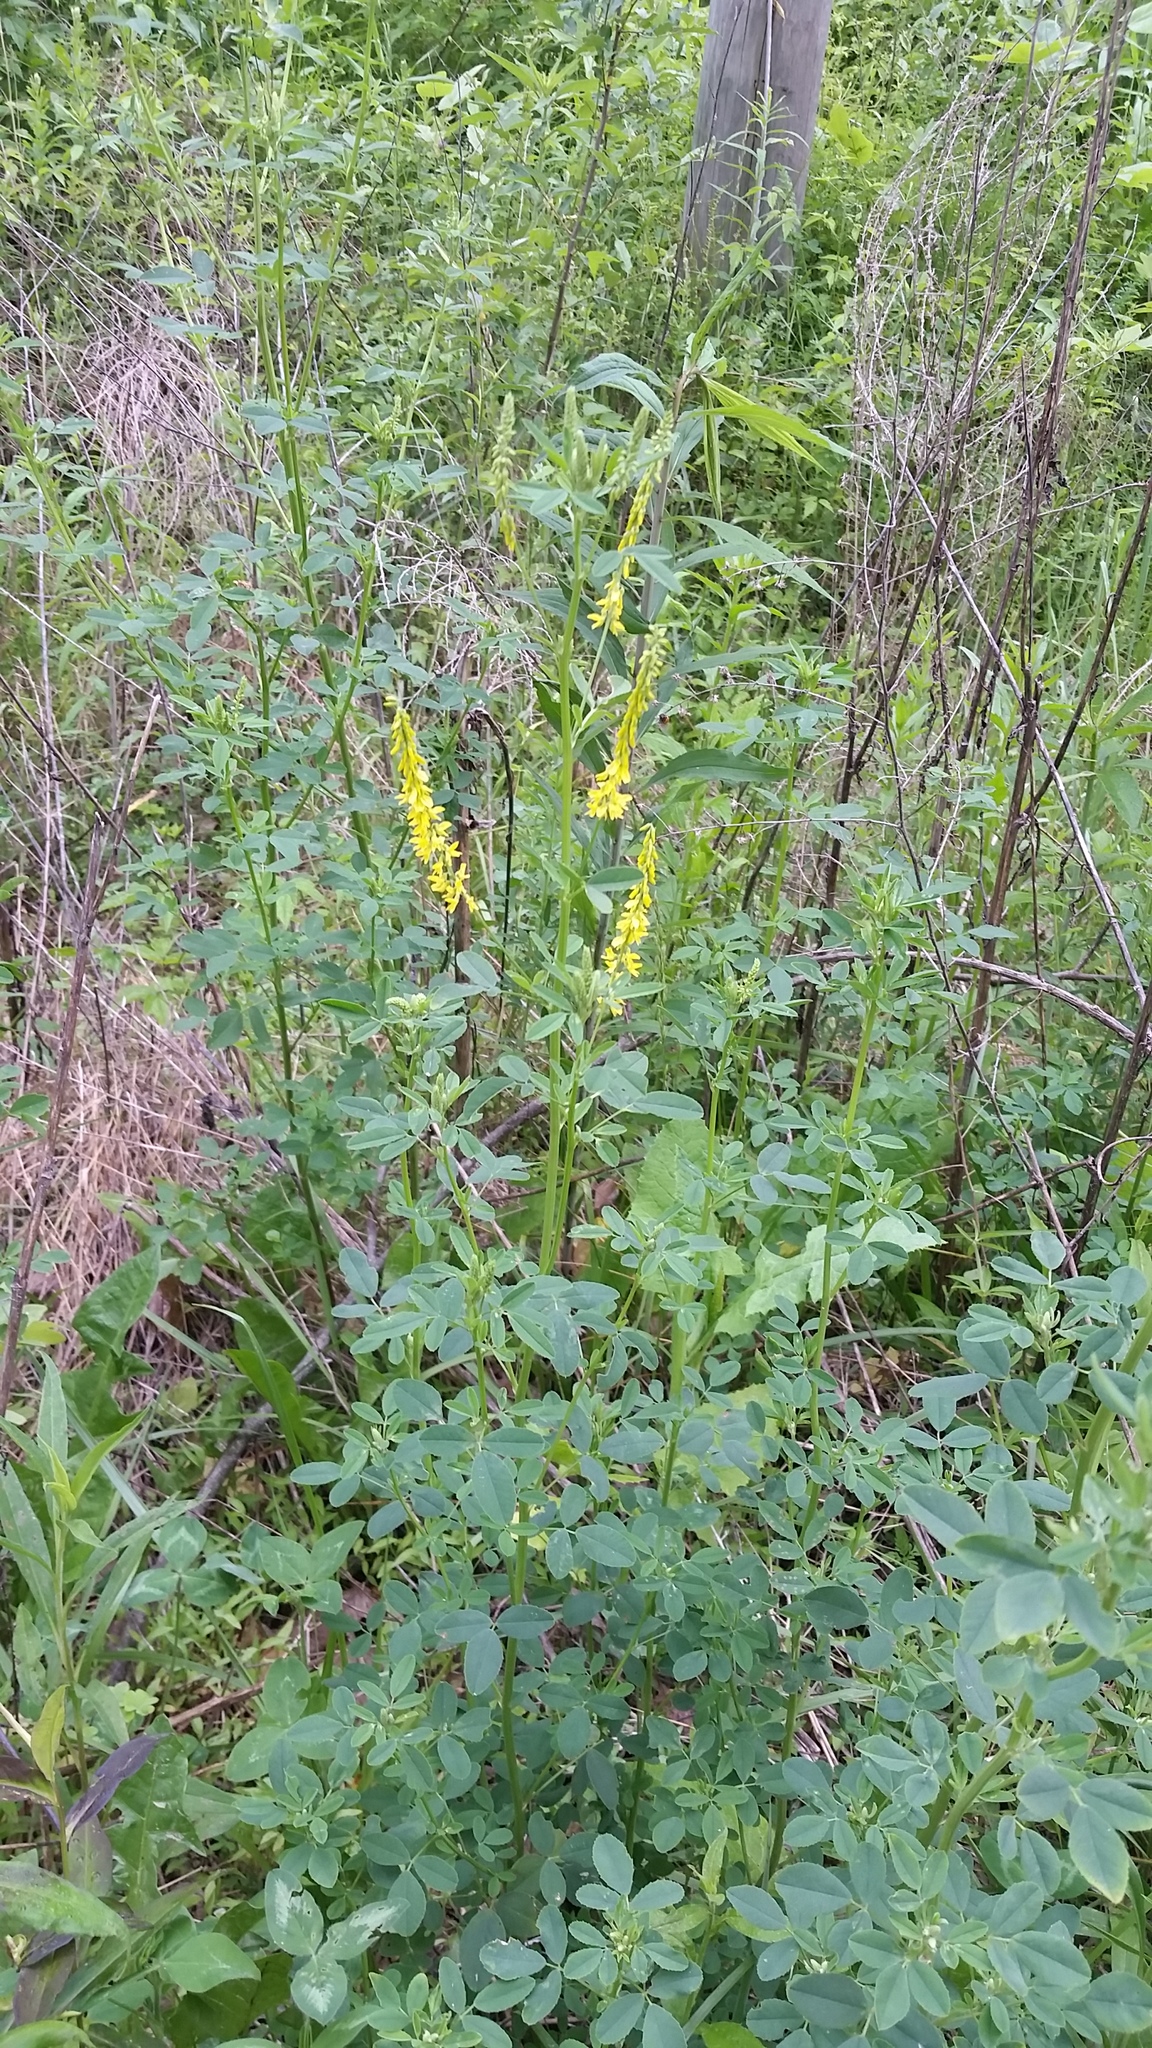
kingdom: Plantae
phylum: Tracheophyta
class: Magnoliopsida
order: Fabales
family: Fabaceae
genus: Melilotus
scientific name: Melilotus officinalis
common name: Sweetclover
